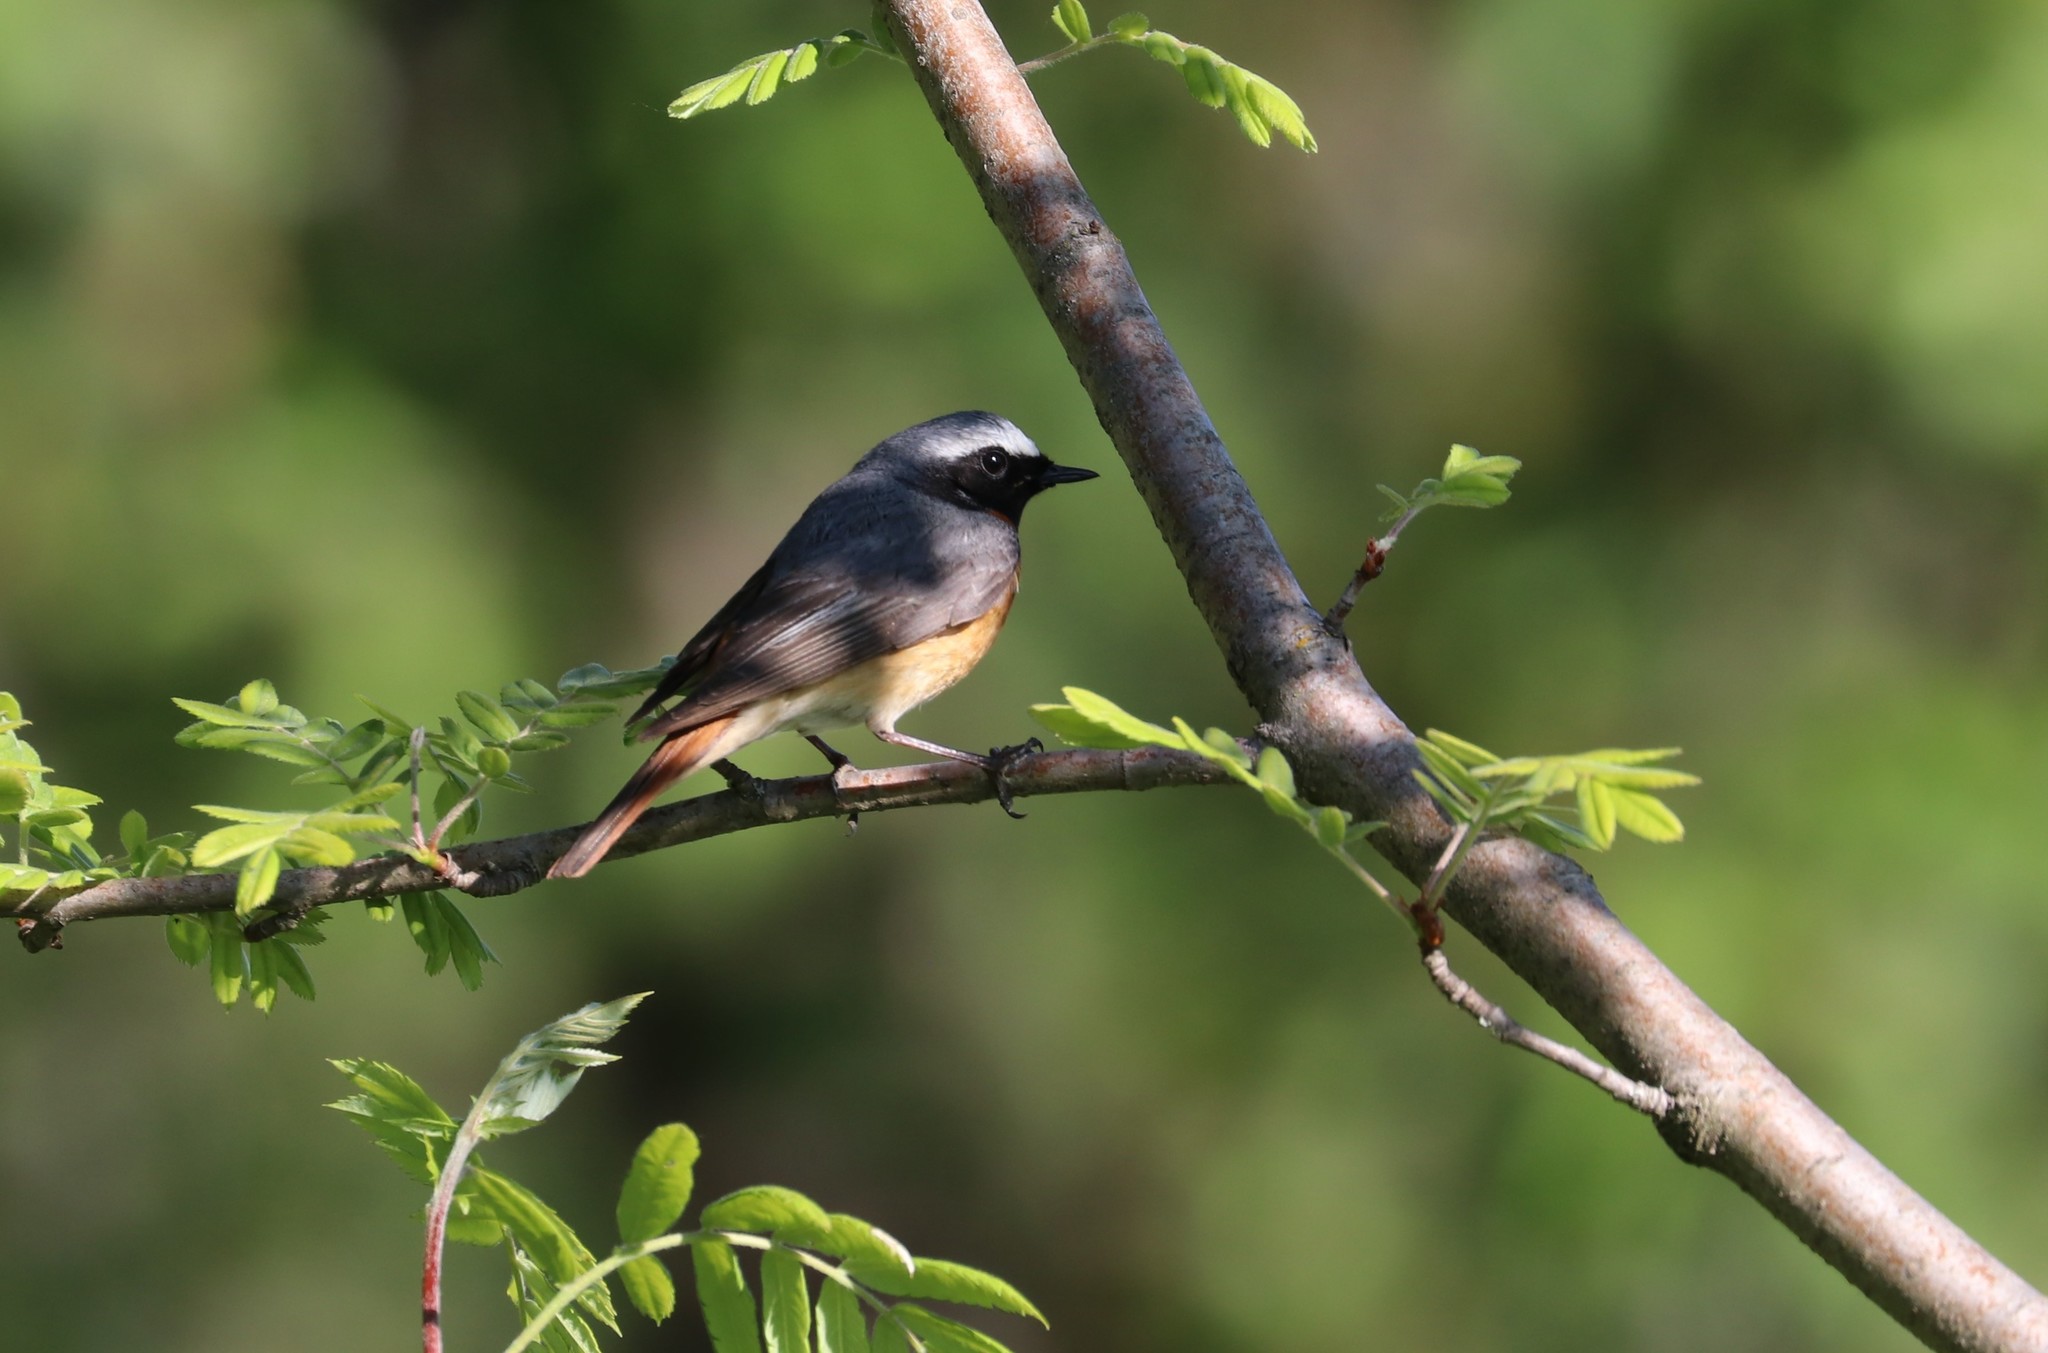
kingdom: Animalia
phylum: Chordata
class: Aves
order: Passeriformes
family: Muscicapidae
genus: Phoenicurus
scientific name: Phoenicurus phoenicurus
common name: Common redstart
